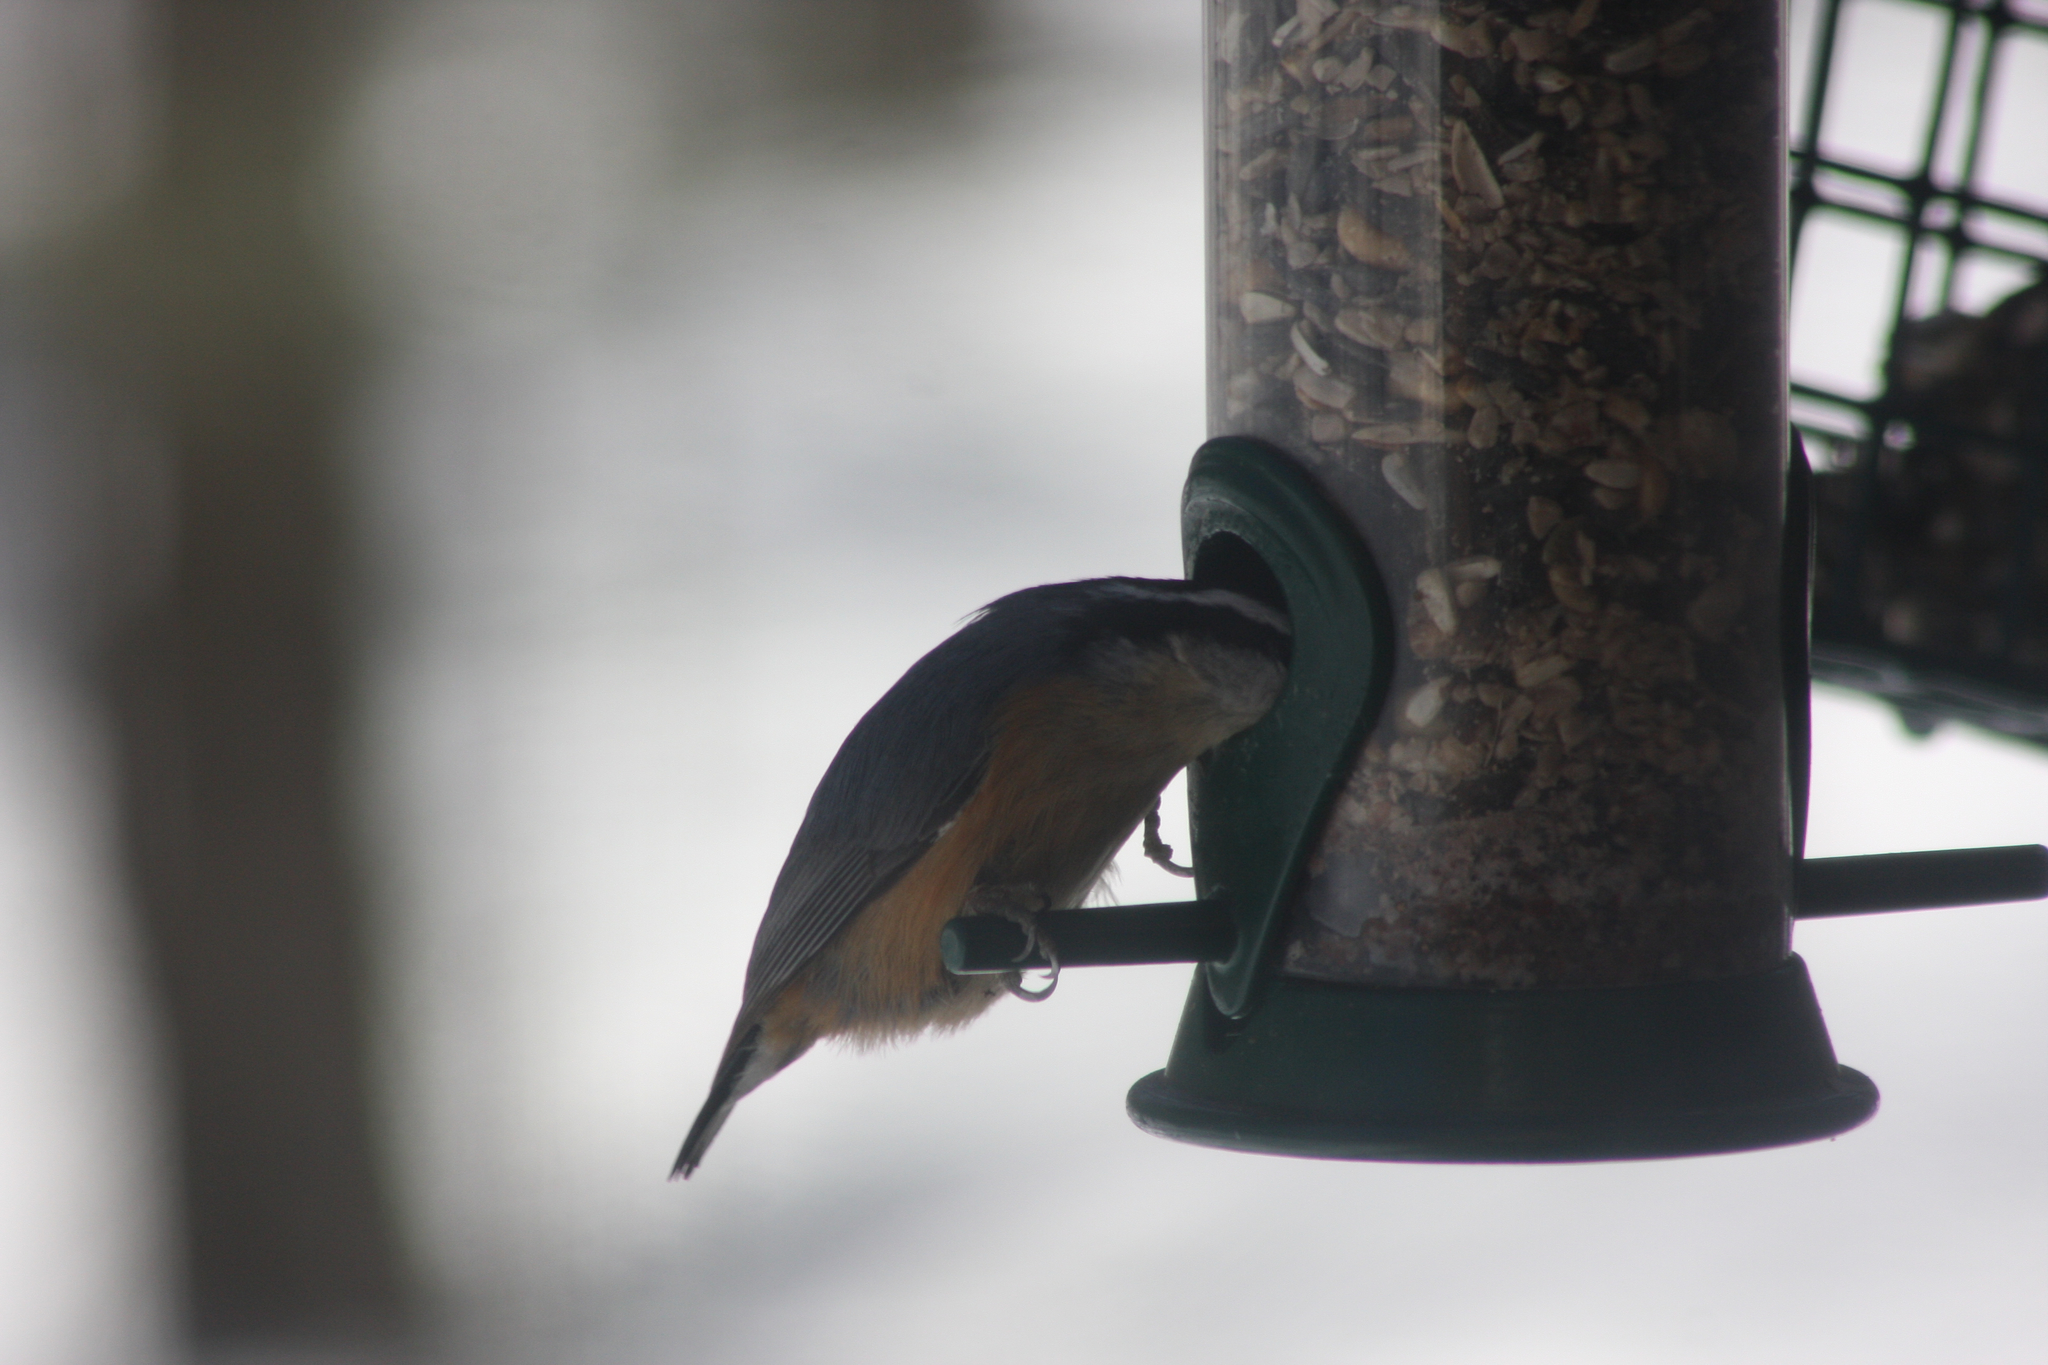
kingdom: Animalia
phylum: Chordata
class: Aves
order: Passeriformes
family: Sittidae
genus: Sitta
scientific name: Sitta canadensis
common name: Red-breasted nuthatch
